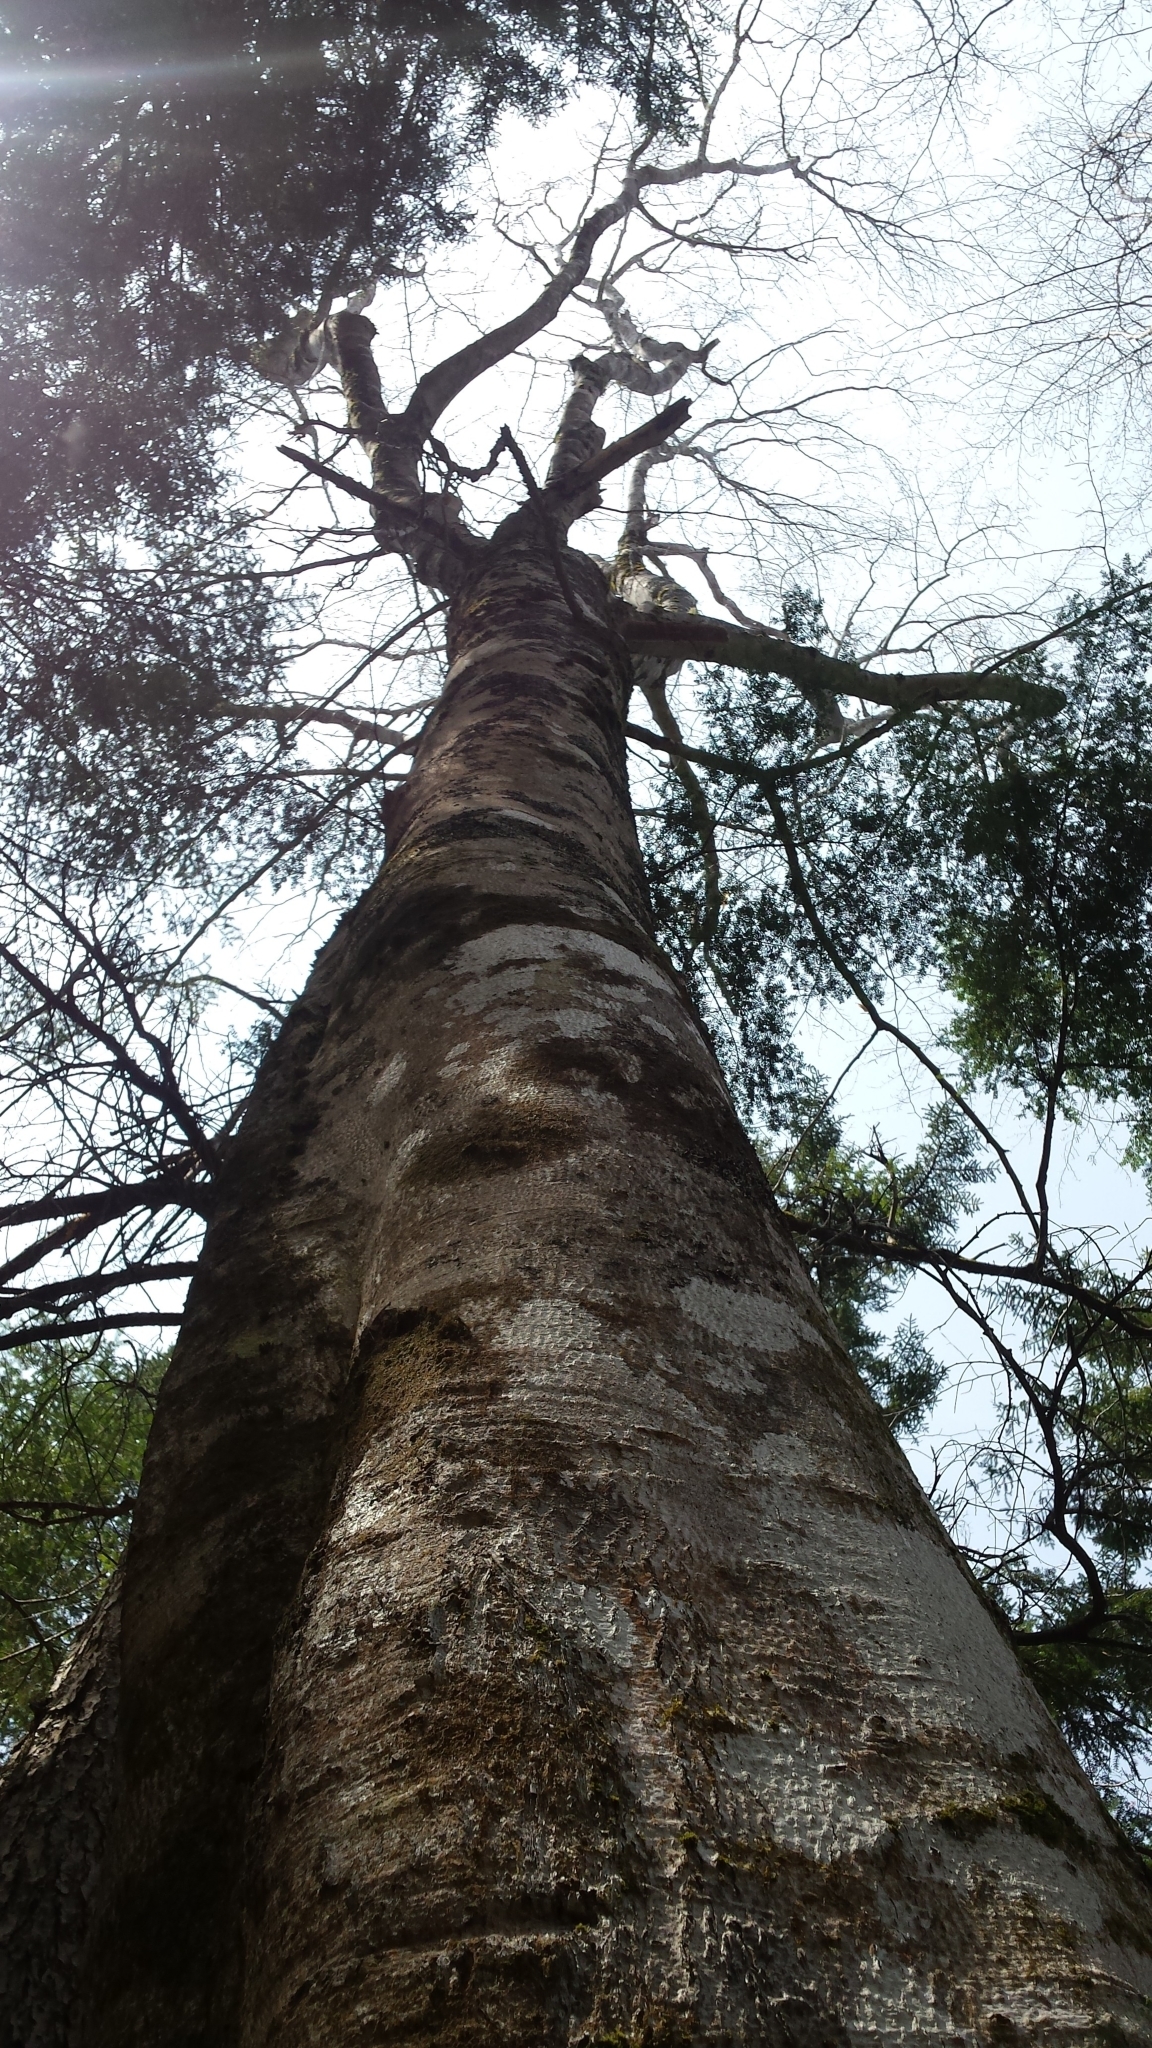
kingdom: Plantae
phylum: Tracheophyta
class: Magnoliopsida
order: Fagales
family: Fagaceae
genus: Fagus
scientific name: Fagus grandifolia
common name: American beech
